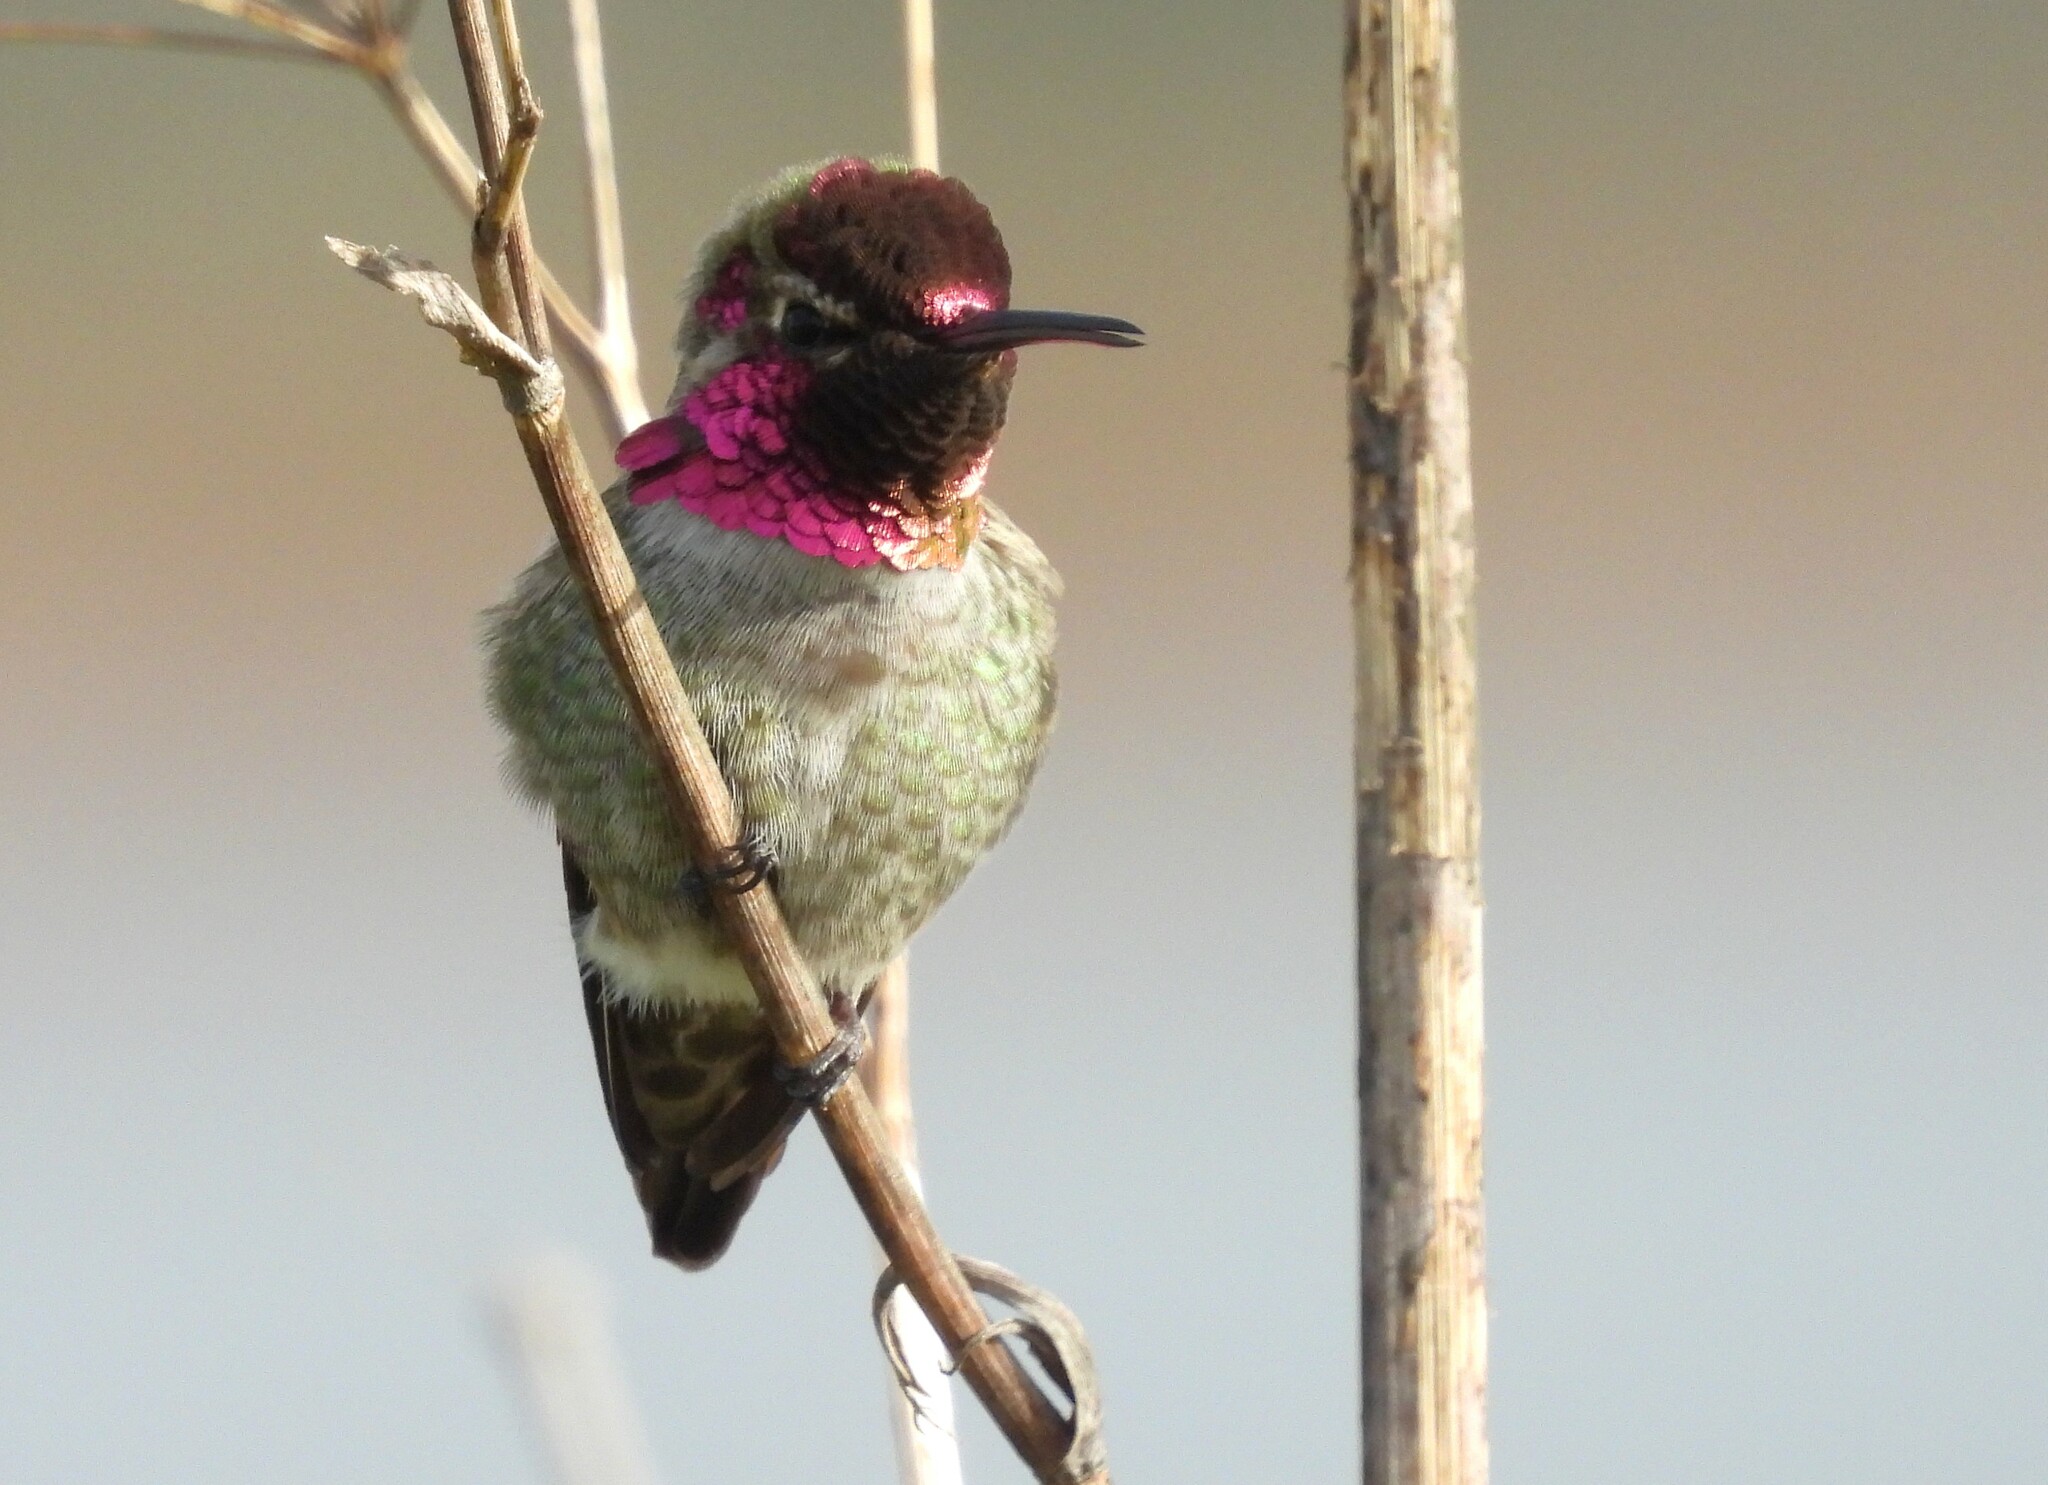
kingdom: Animalia
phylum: Chordata
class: Aves
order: Apodiformes
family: Trochilidae
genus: Calypte
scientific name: Calypte anna
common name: Anna's hummingbird
